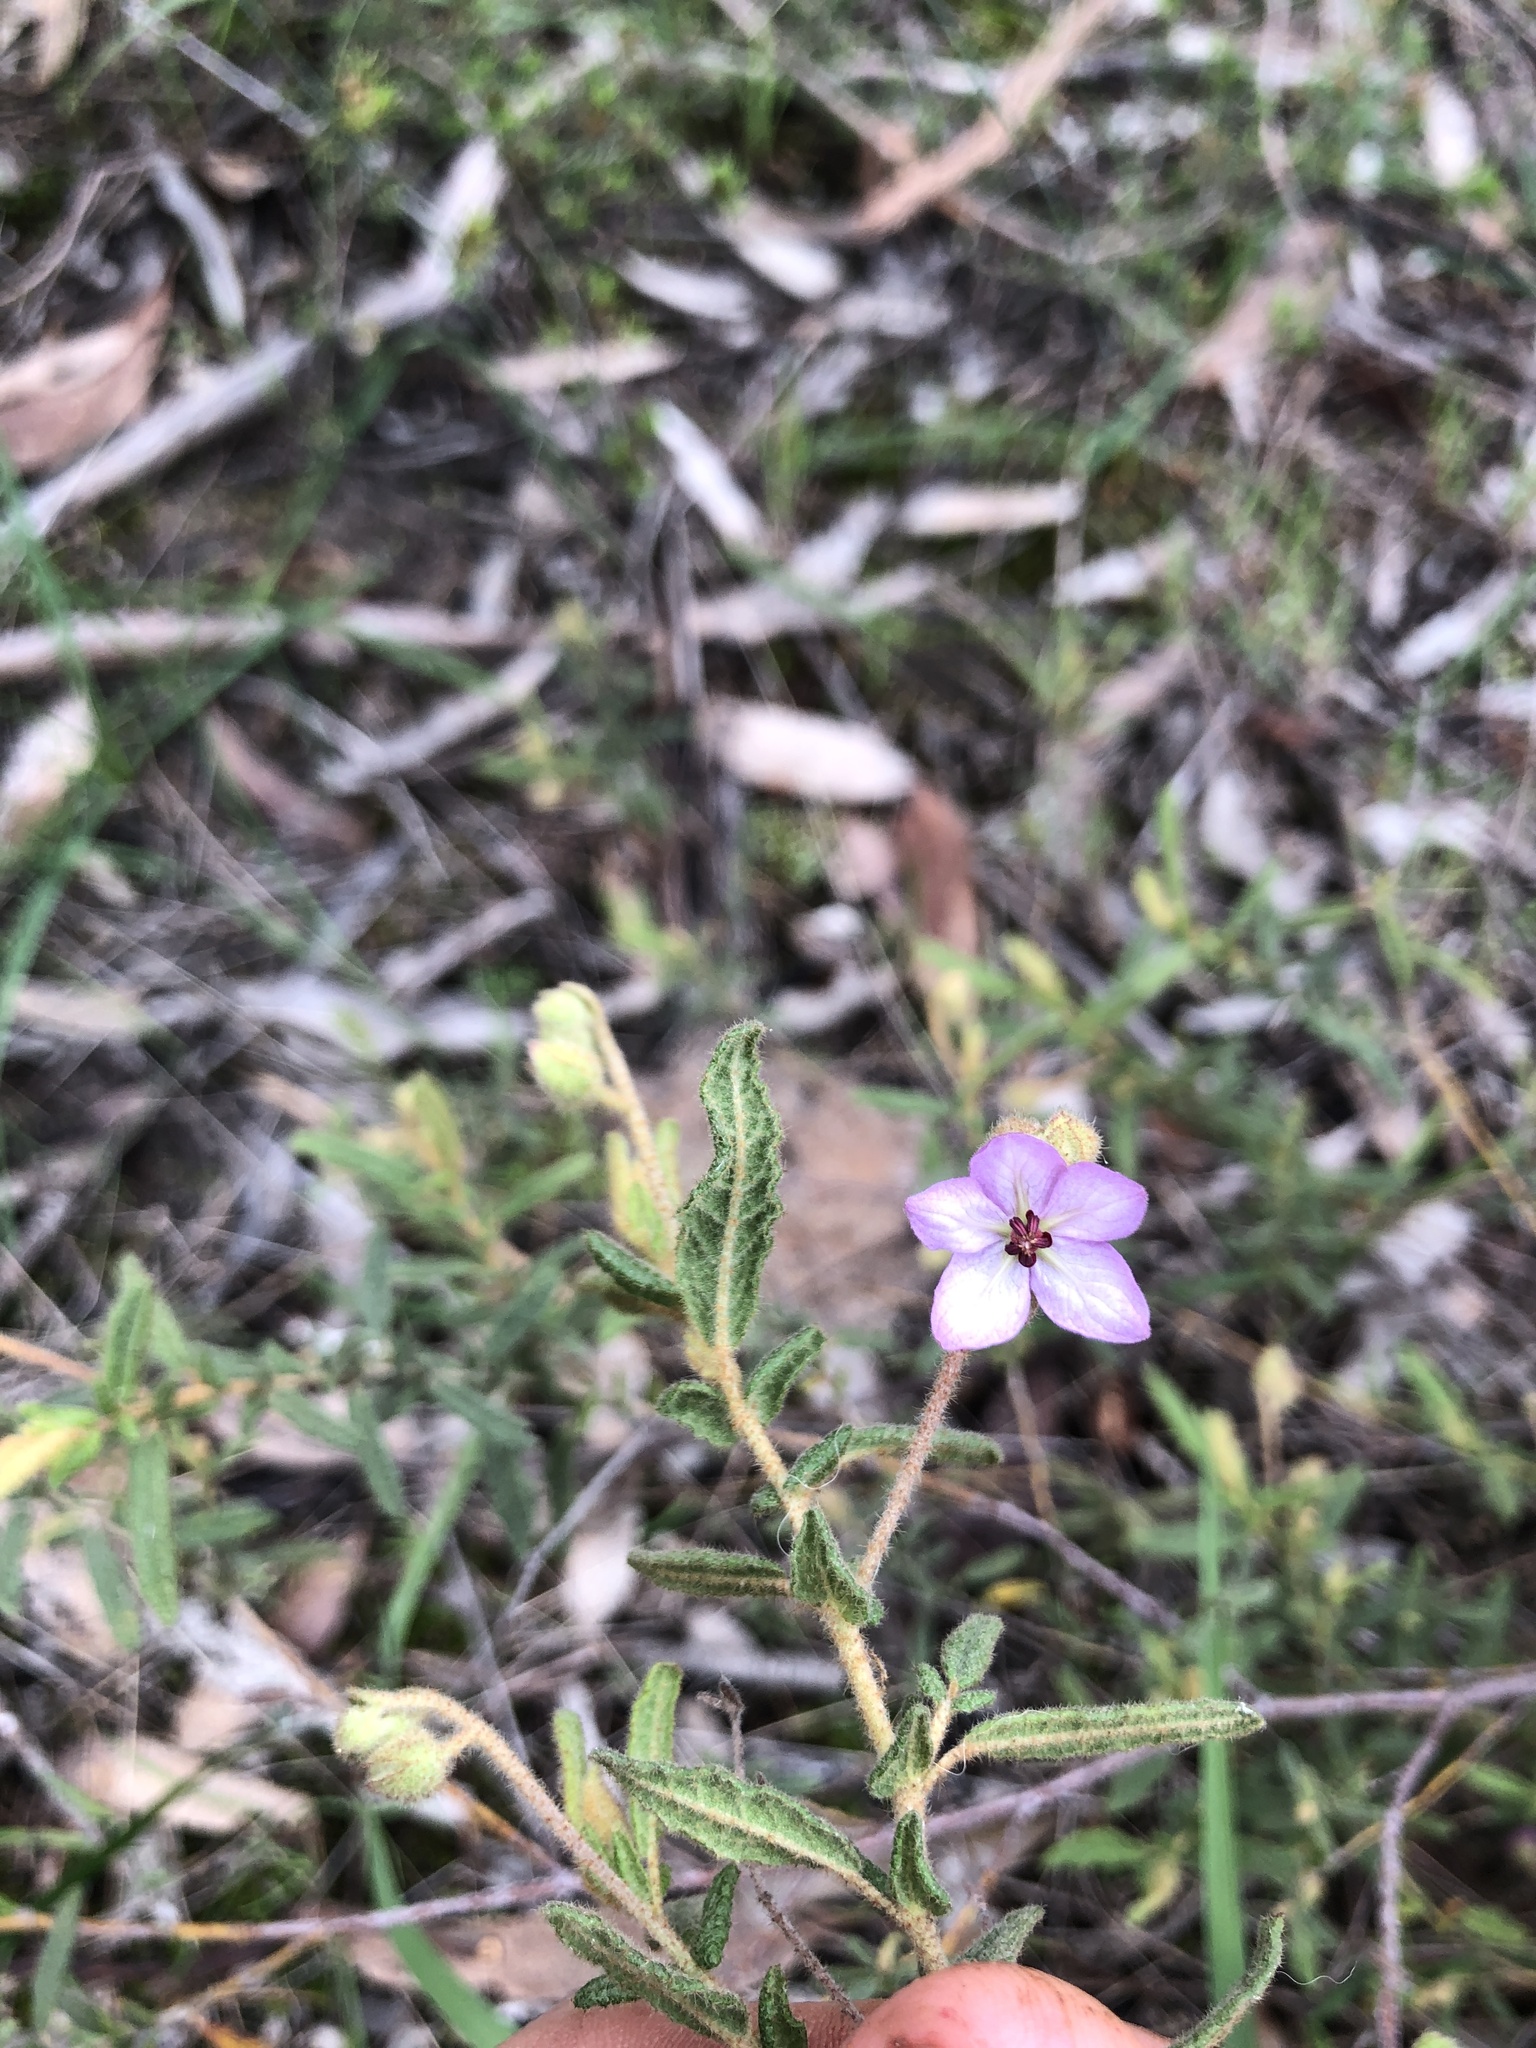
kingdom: Plantae
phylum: Tracheophyta
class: Magnoliopsida
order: Malvales
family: Malvaceae
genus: Thomasia
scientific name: Thomasia petalocalyx
